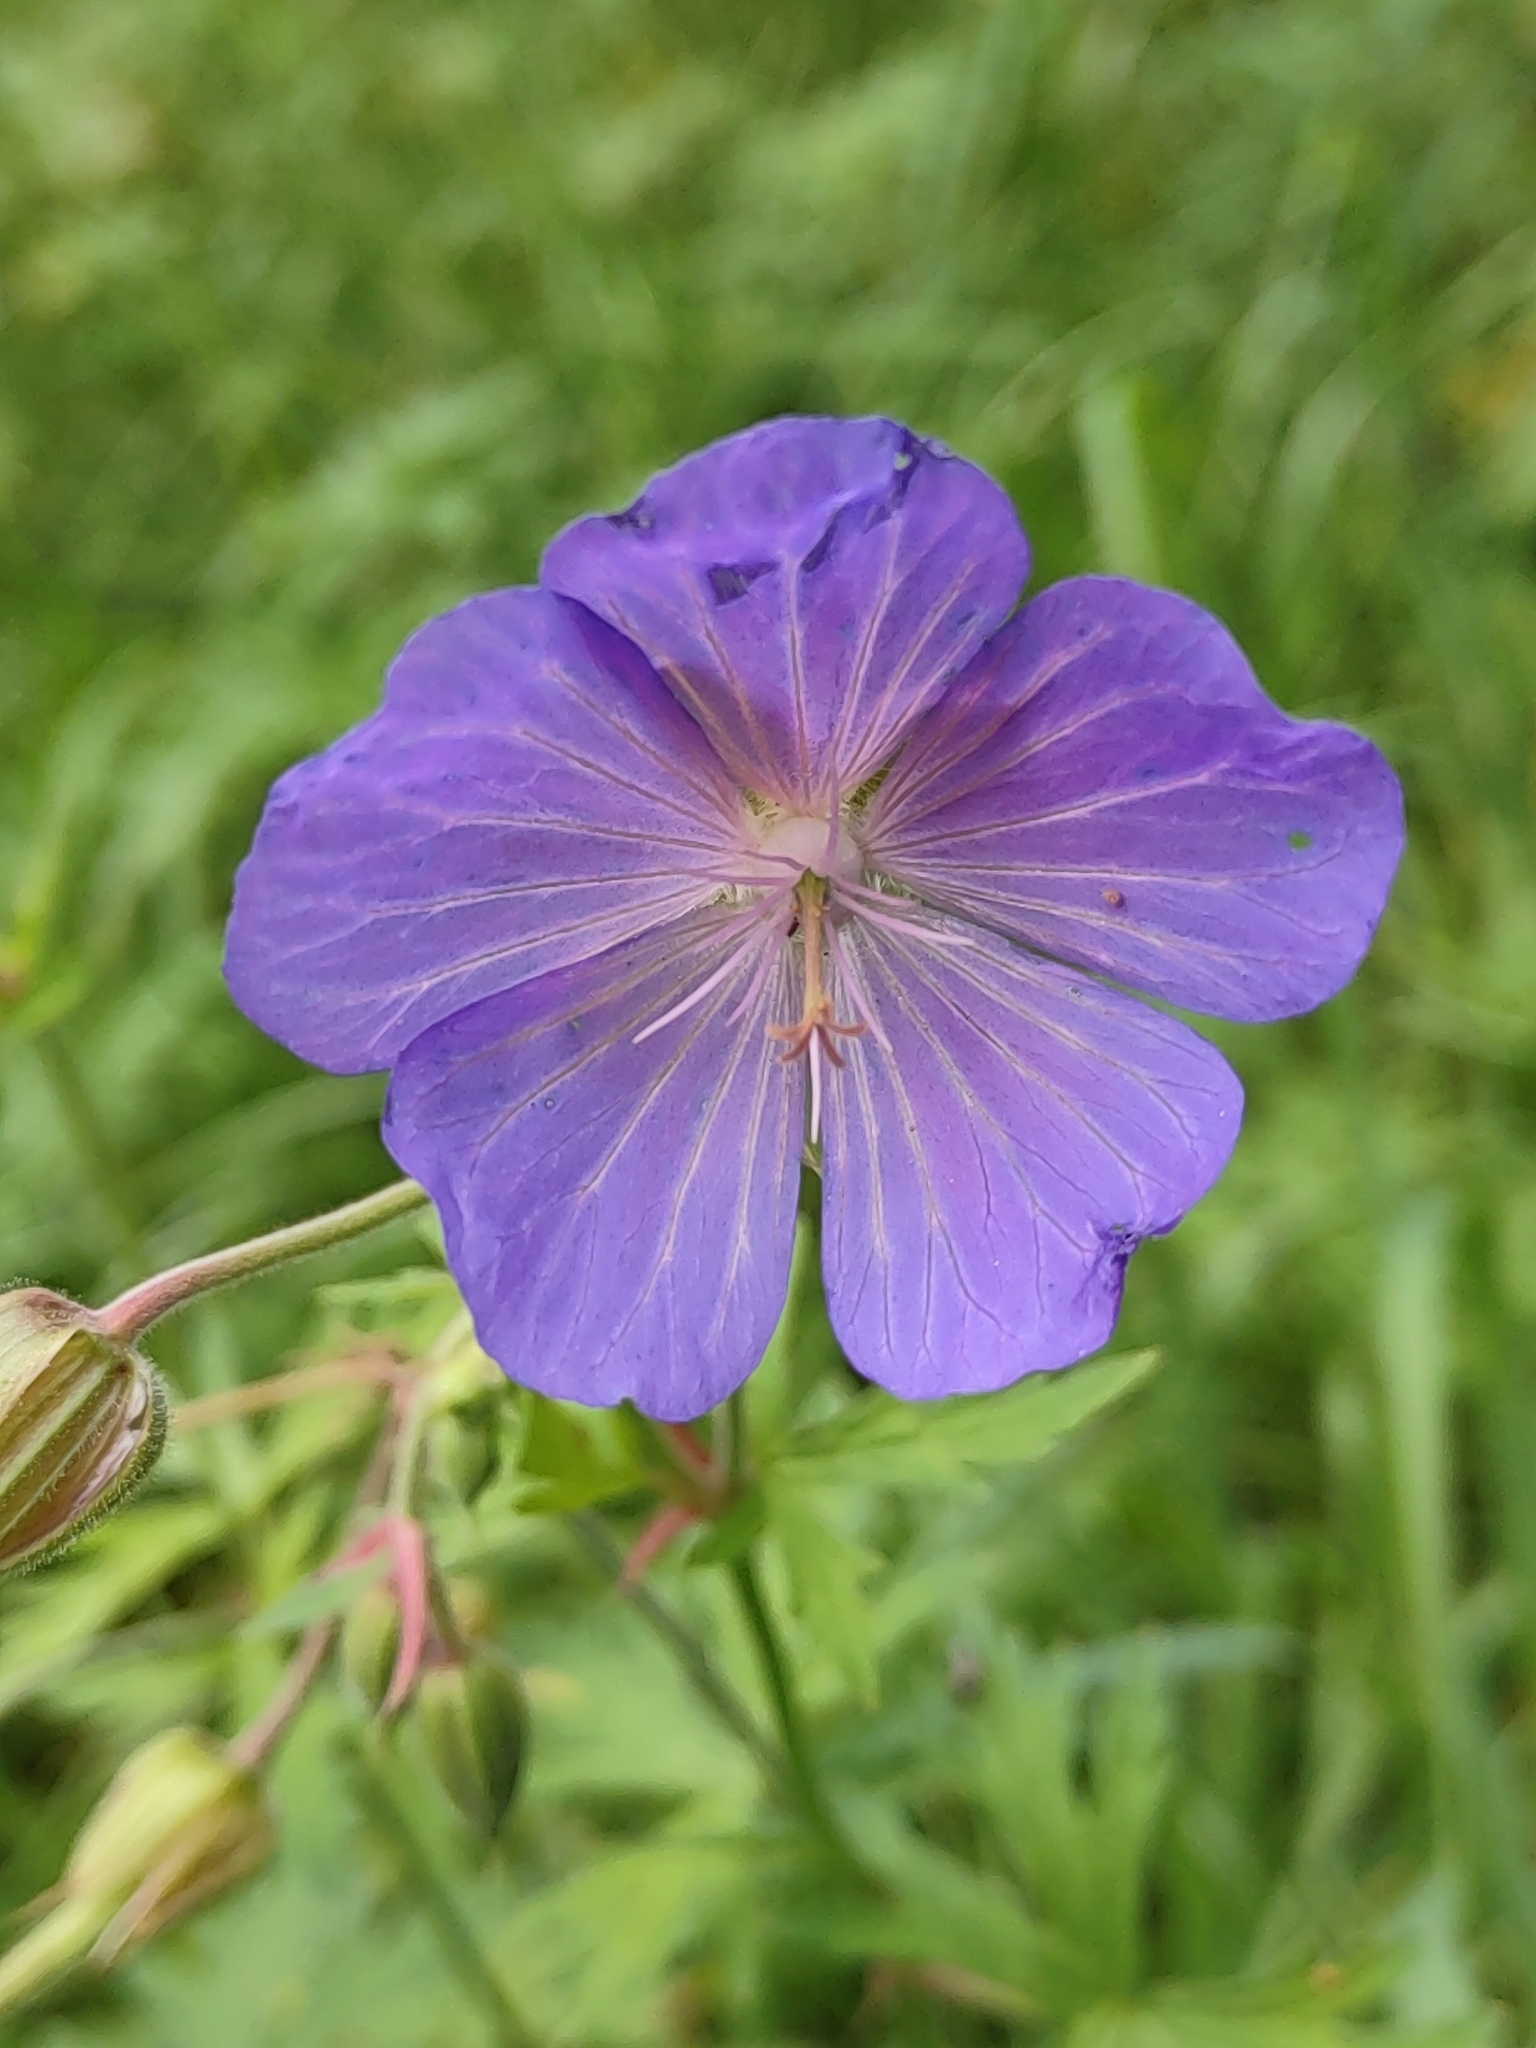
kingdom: Plantae
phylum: Tracheophyta
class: Magnoliopsida
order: Geraniales
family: Geraniaceae
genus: Geranium
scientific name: Geranium pratense
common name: Meadow crane's-bill
